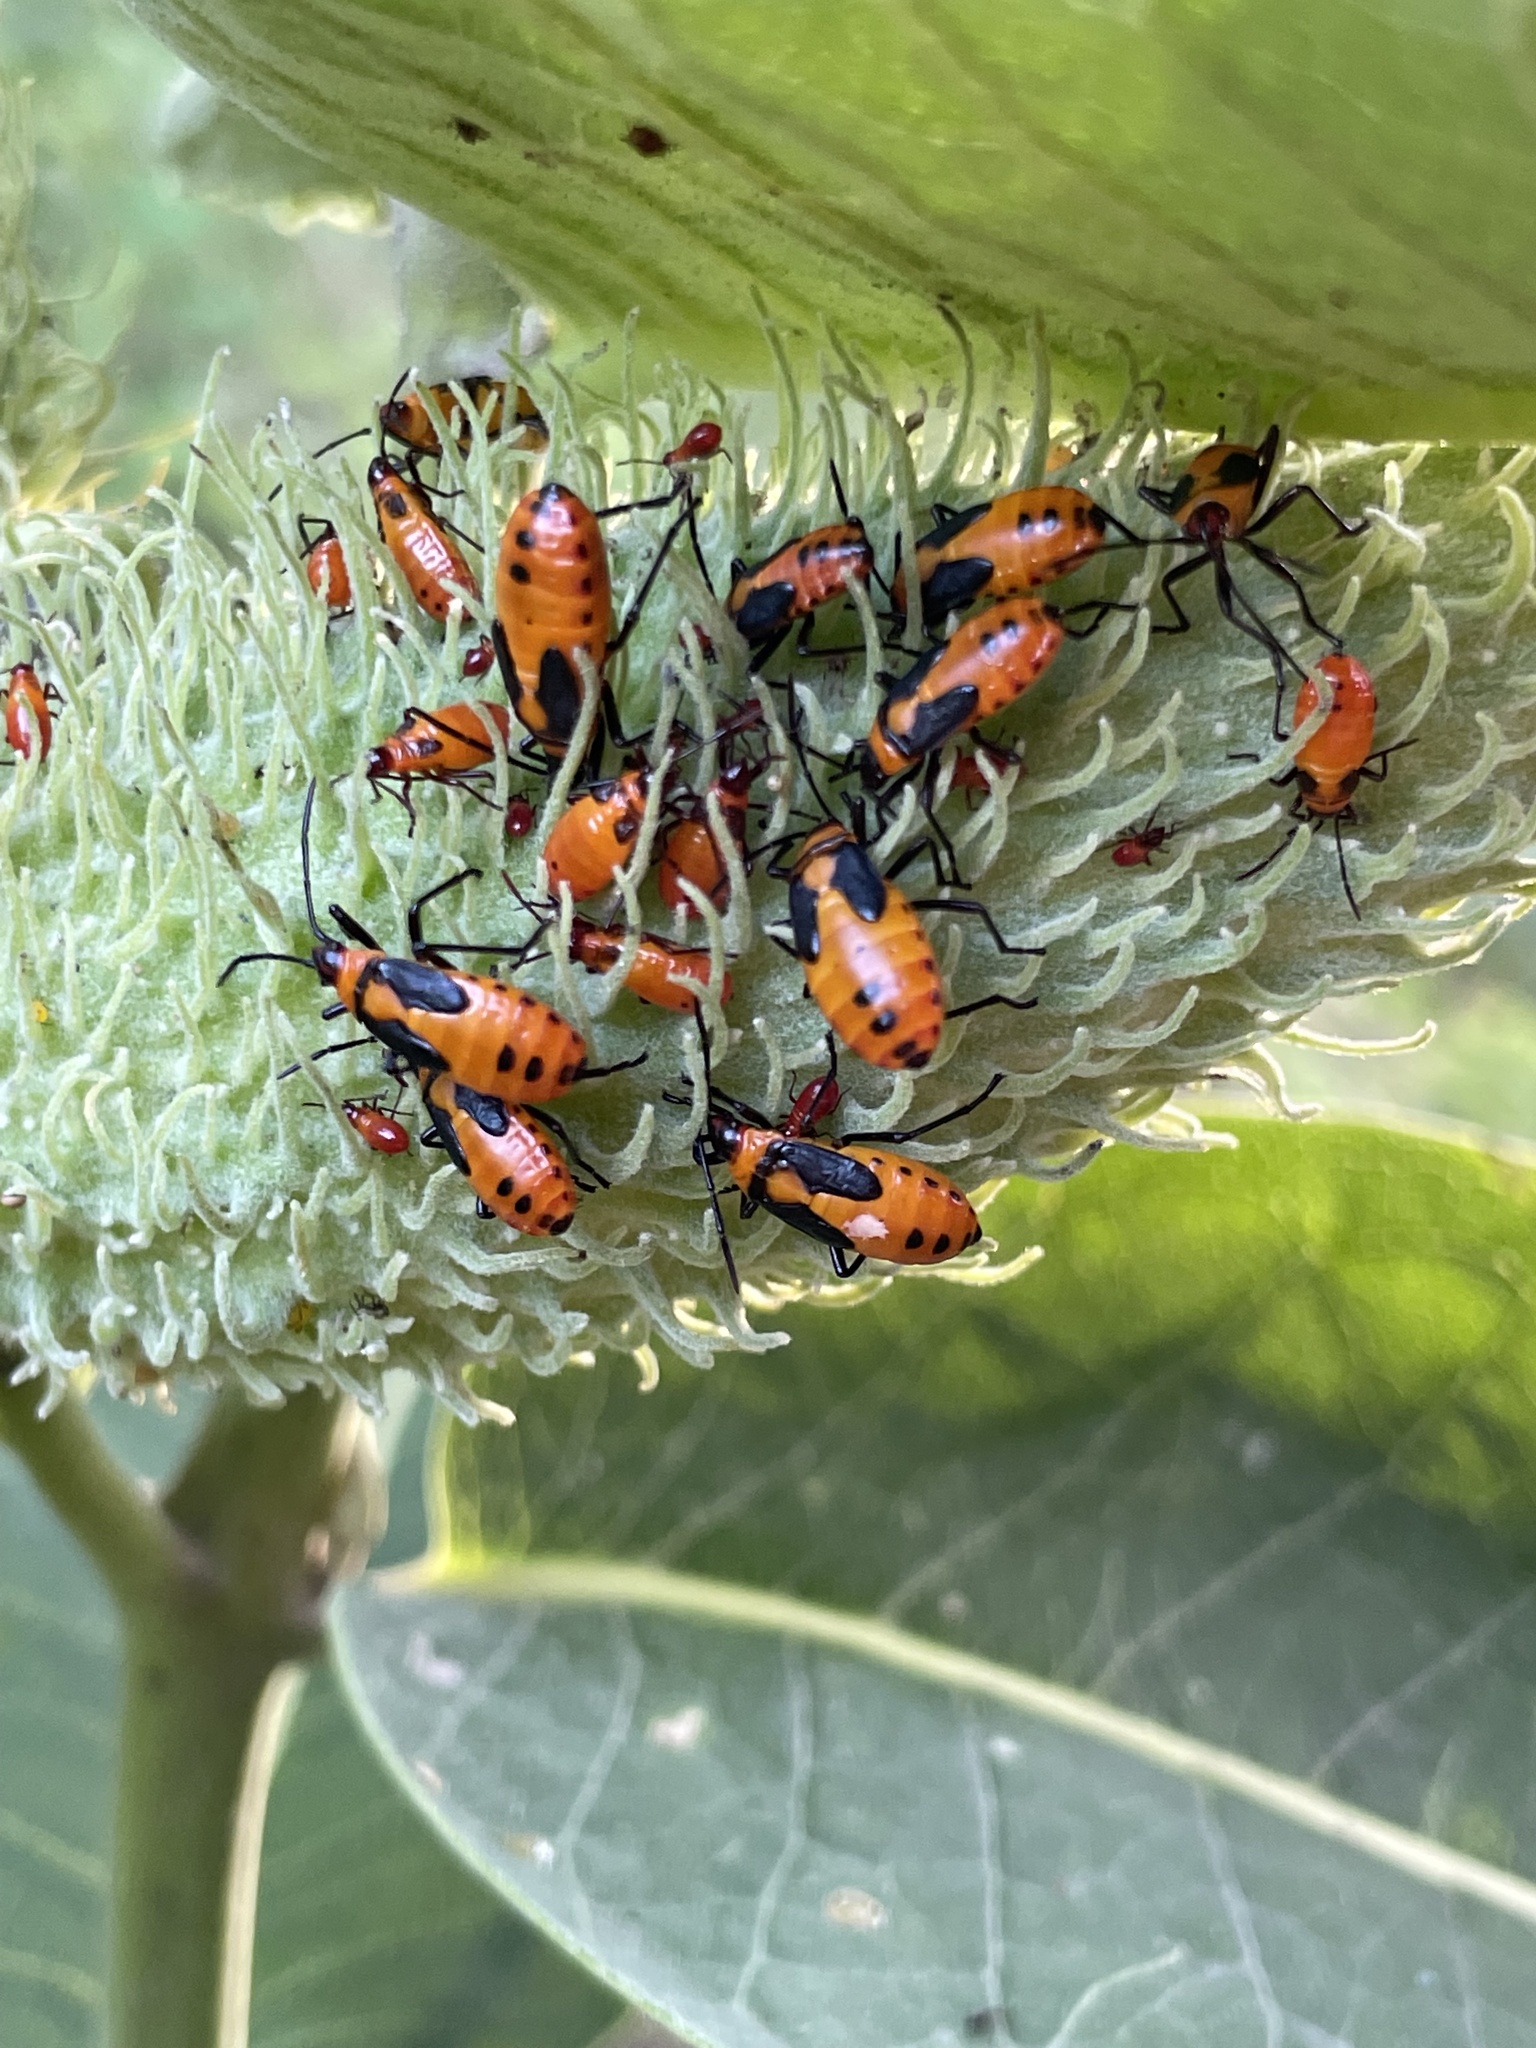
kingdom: Animalia
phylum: Arthropoda
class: Insecta
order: Hemiptera
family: Lygaeidae
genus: Oncopeltus
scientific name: Oncopeltus fasciatus
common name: Large milkweed bug
